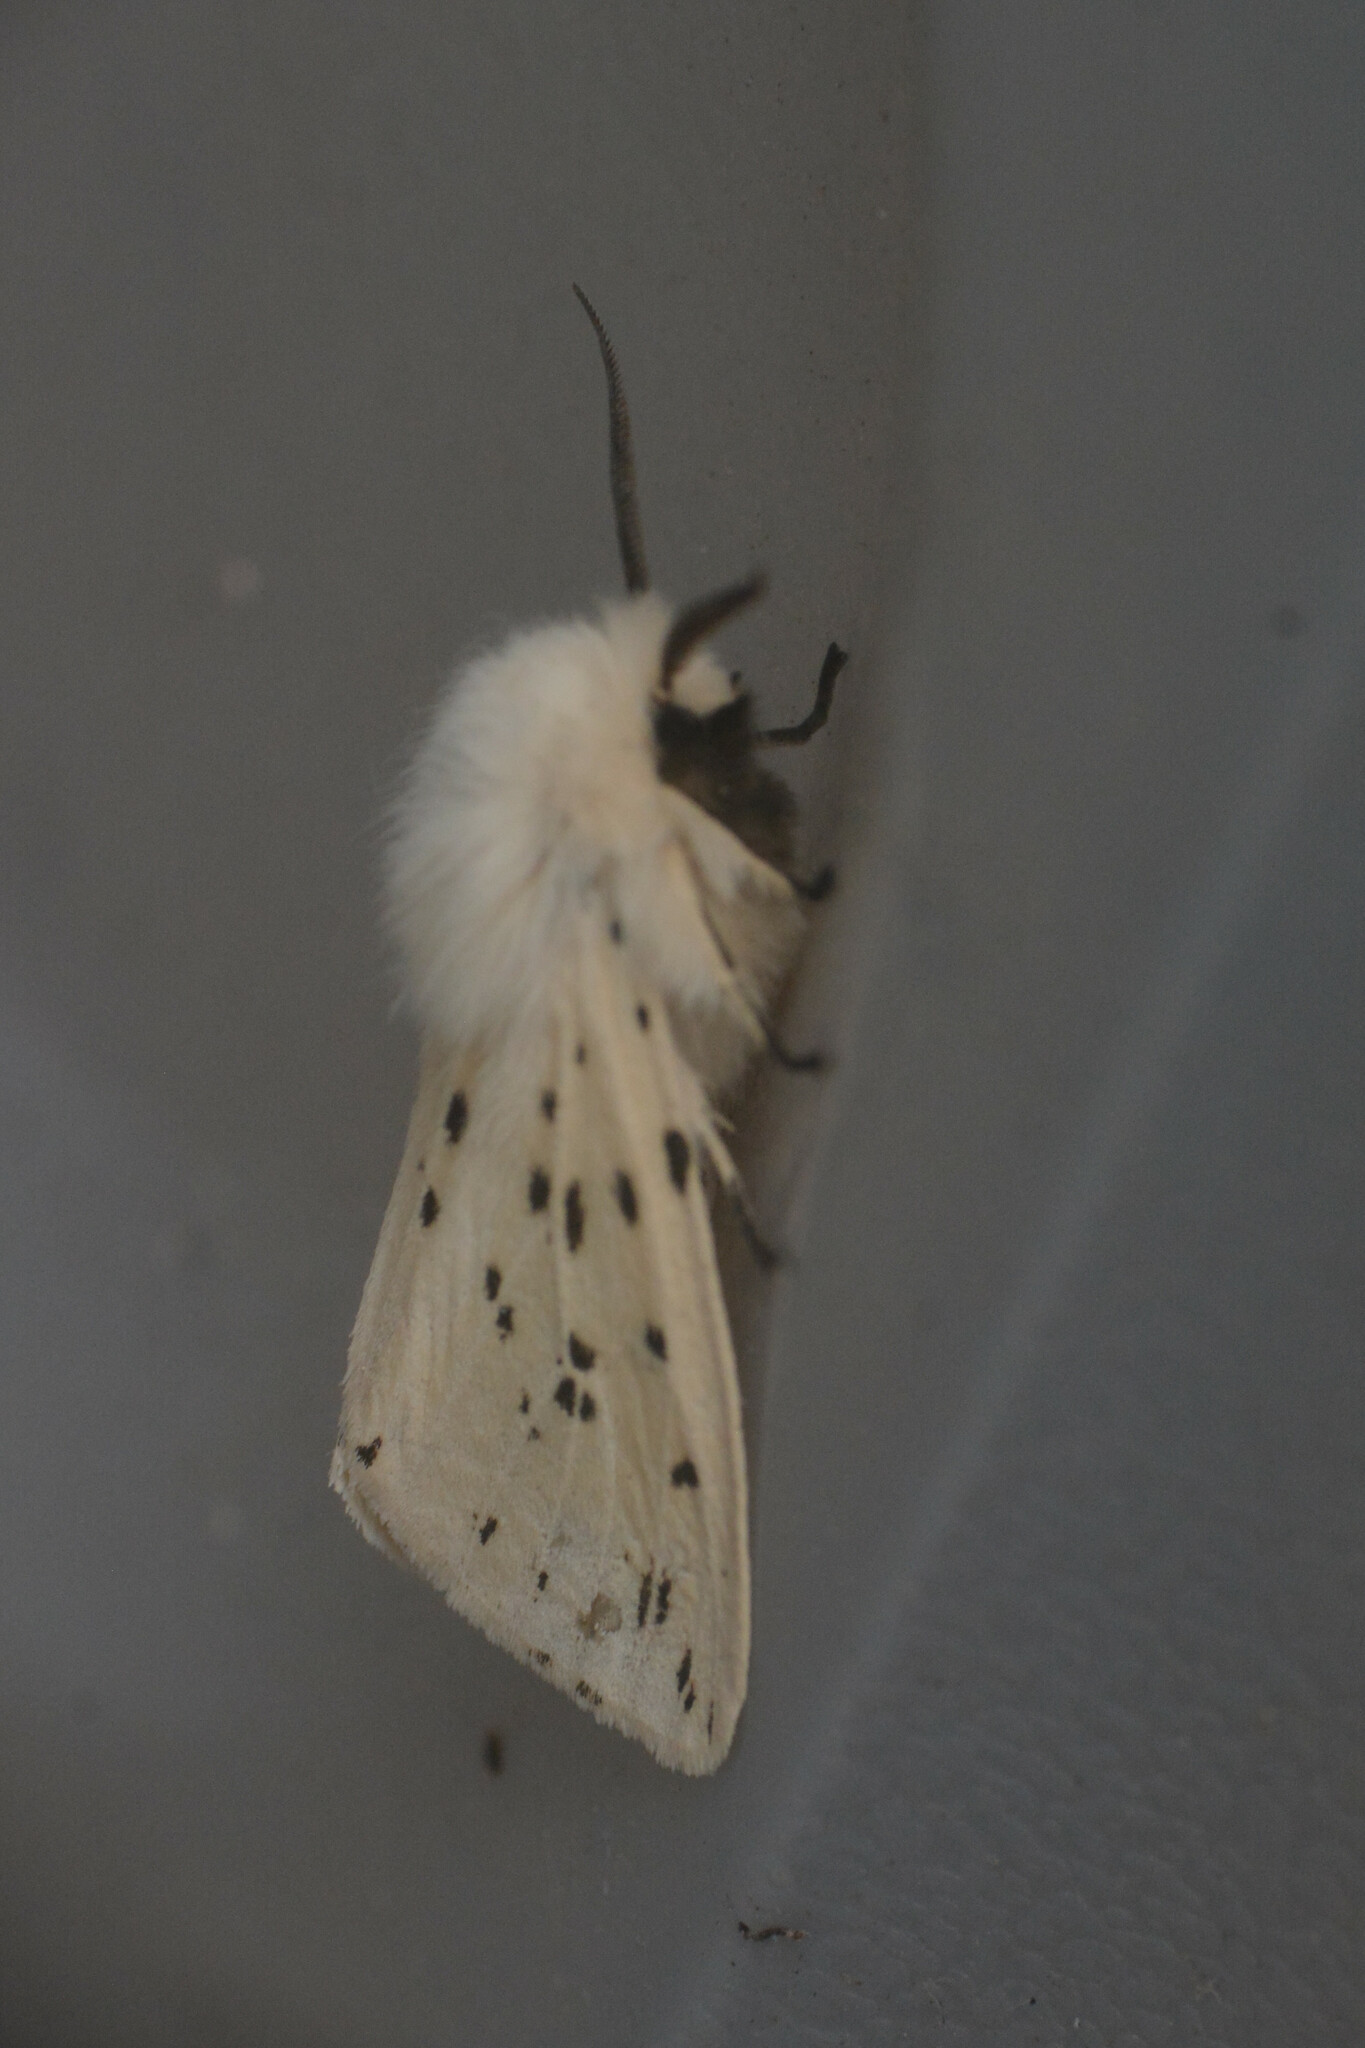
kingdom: Animalia
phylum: Arthropoda
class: Insecta
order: Lepidoptera
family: Erebidae
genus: Spilosoma
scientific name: Spilosoma lubricipeda
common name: White ermine
